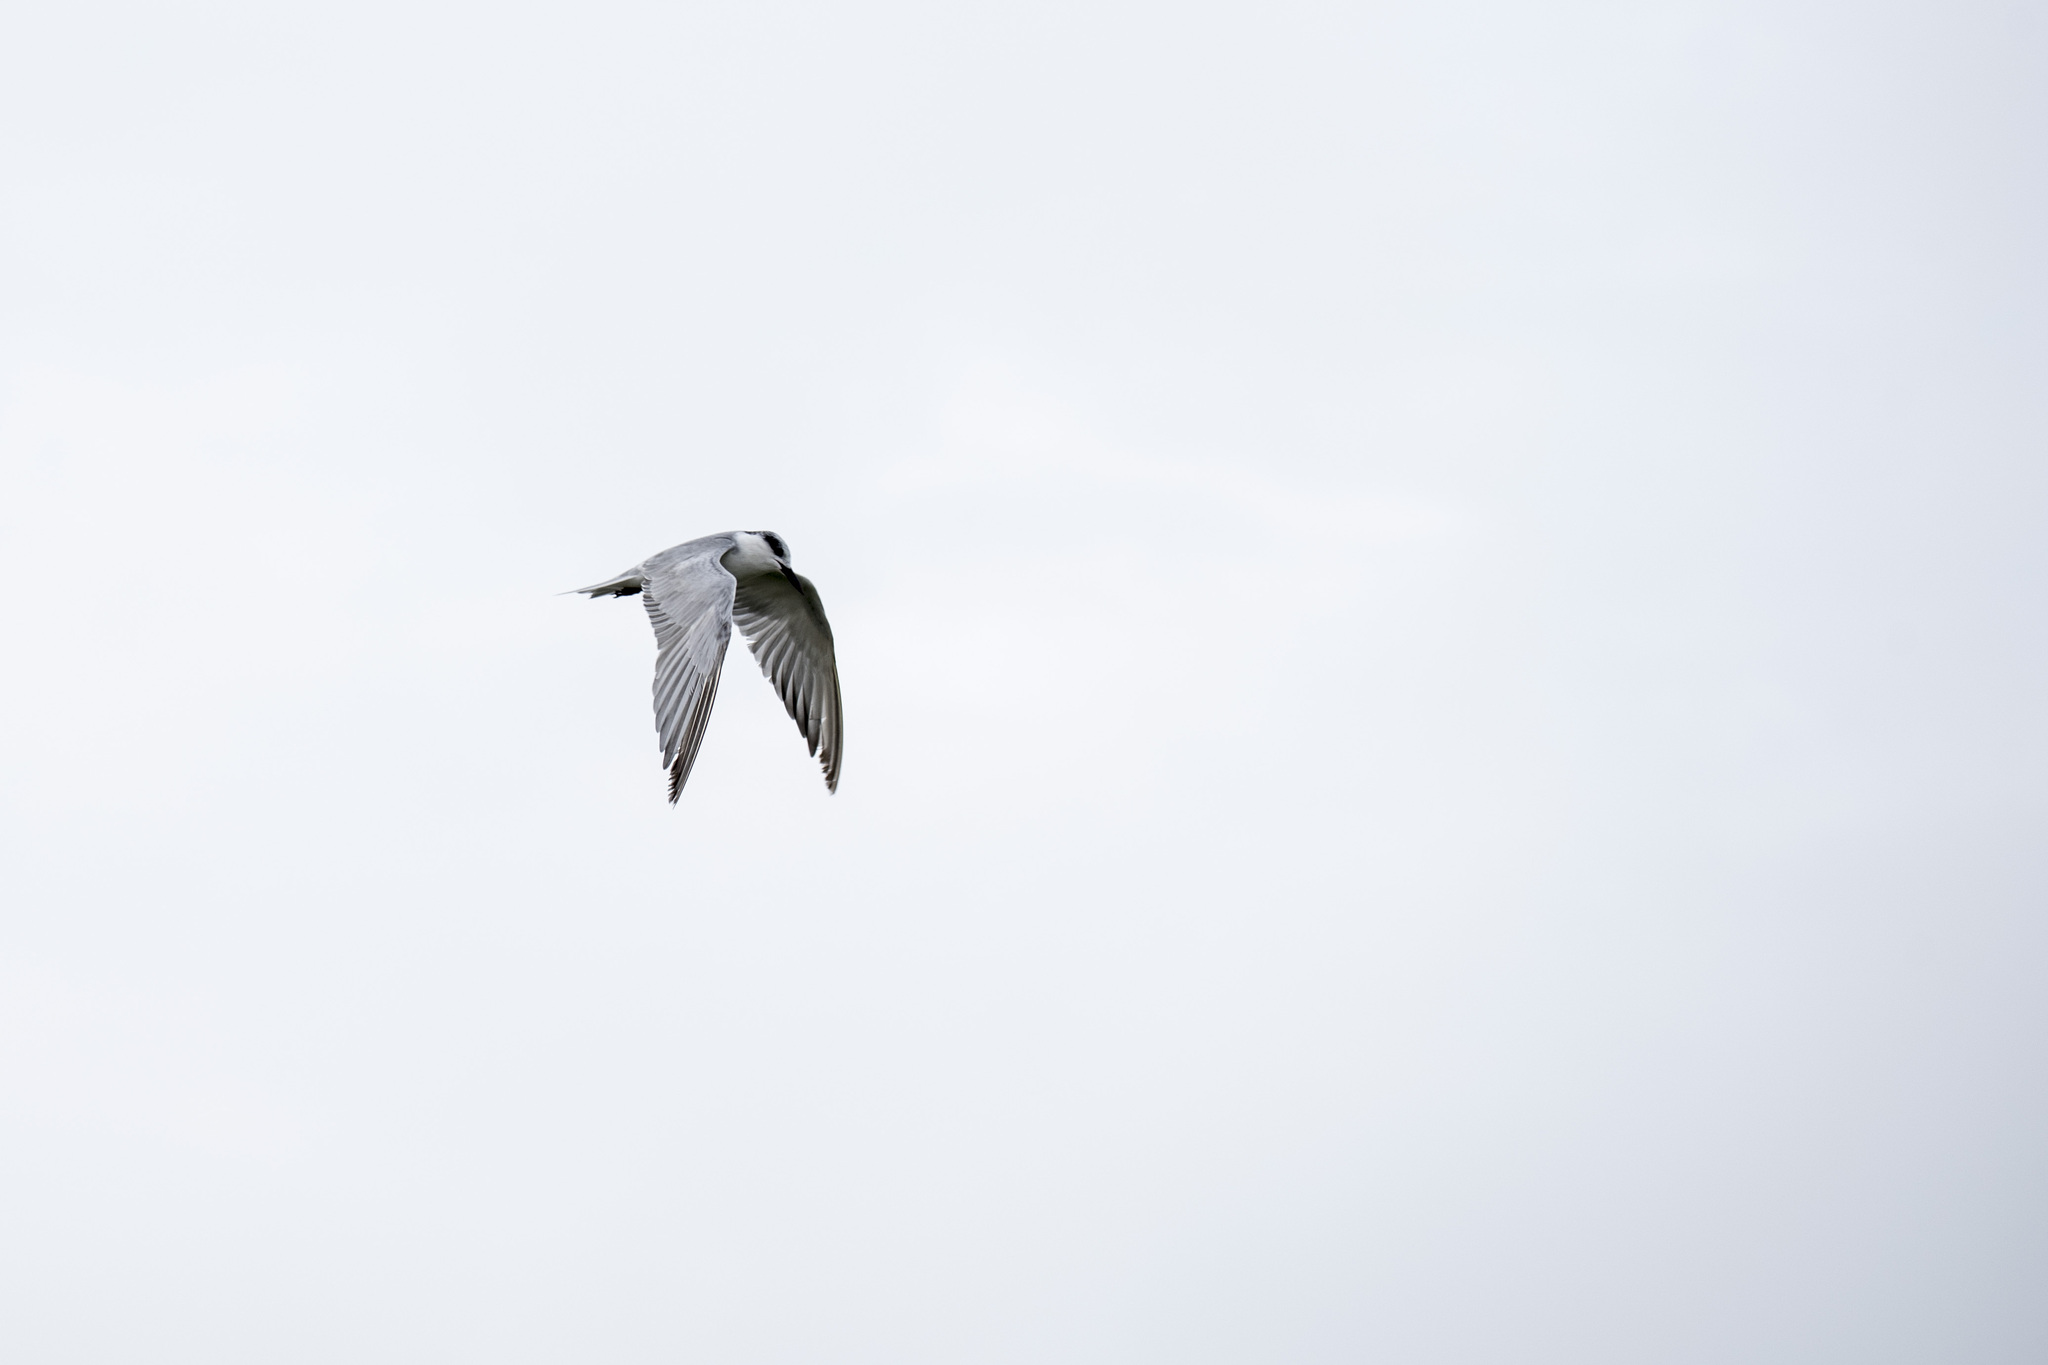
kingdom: Animalia
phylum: Chordata
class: Aves
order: Charadriiformes
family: Laridae
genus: Chlidonias
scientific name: Chlidonias hybrida
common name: Whiskered tern
